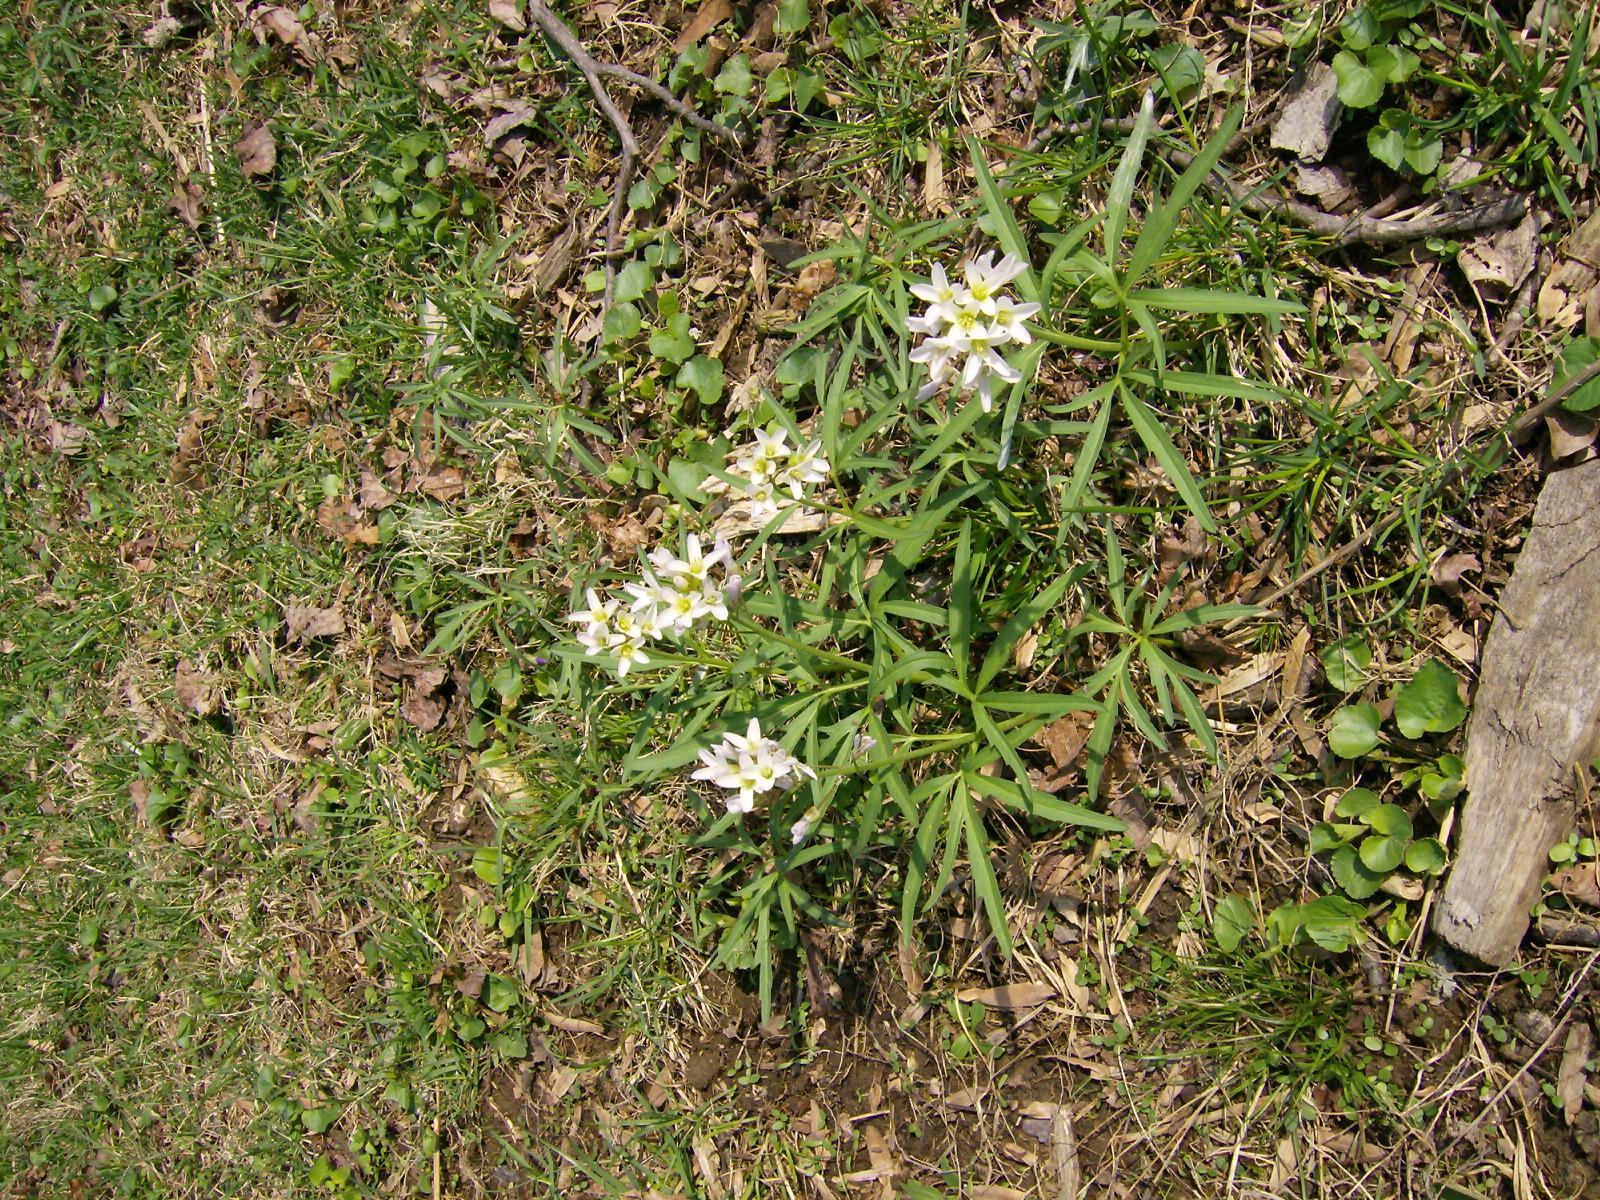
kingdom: Plantae
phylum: Tracheophyta
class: Magnoliopsida
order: Brassicales
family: Brassicaceae
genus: Cardamine
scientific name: Cardamine concatenata
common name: Cut-leaf toothcup
